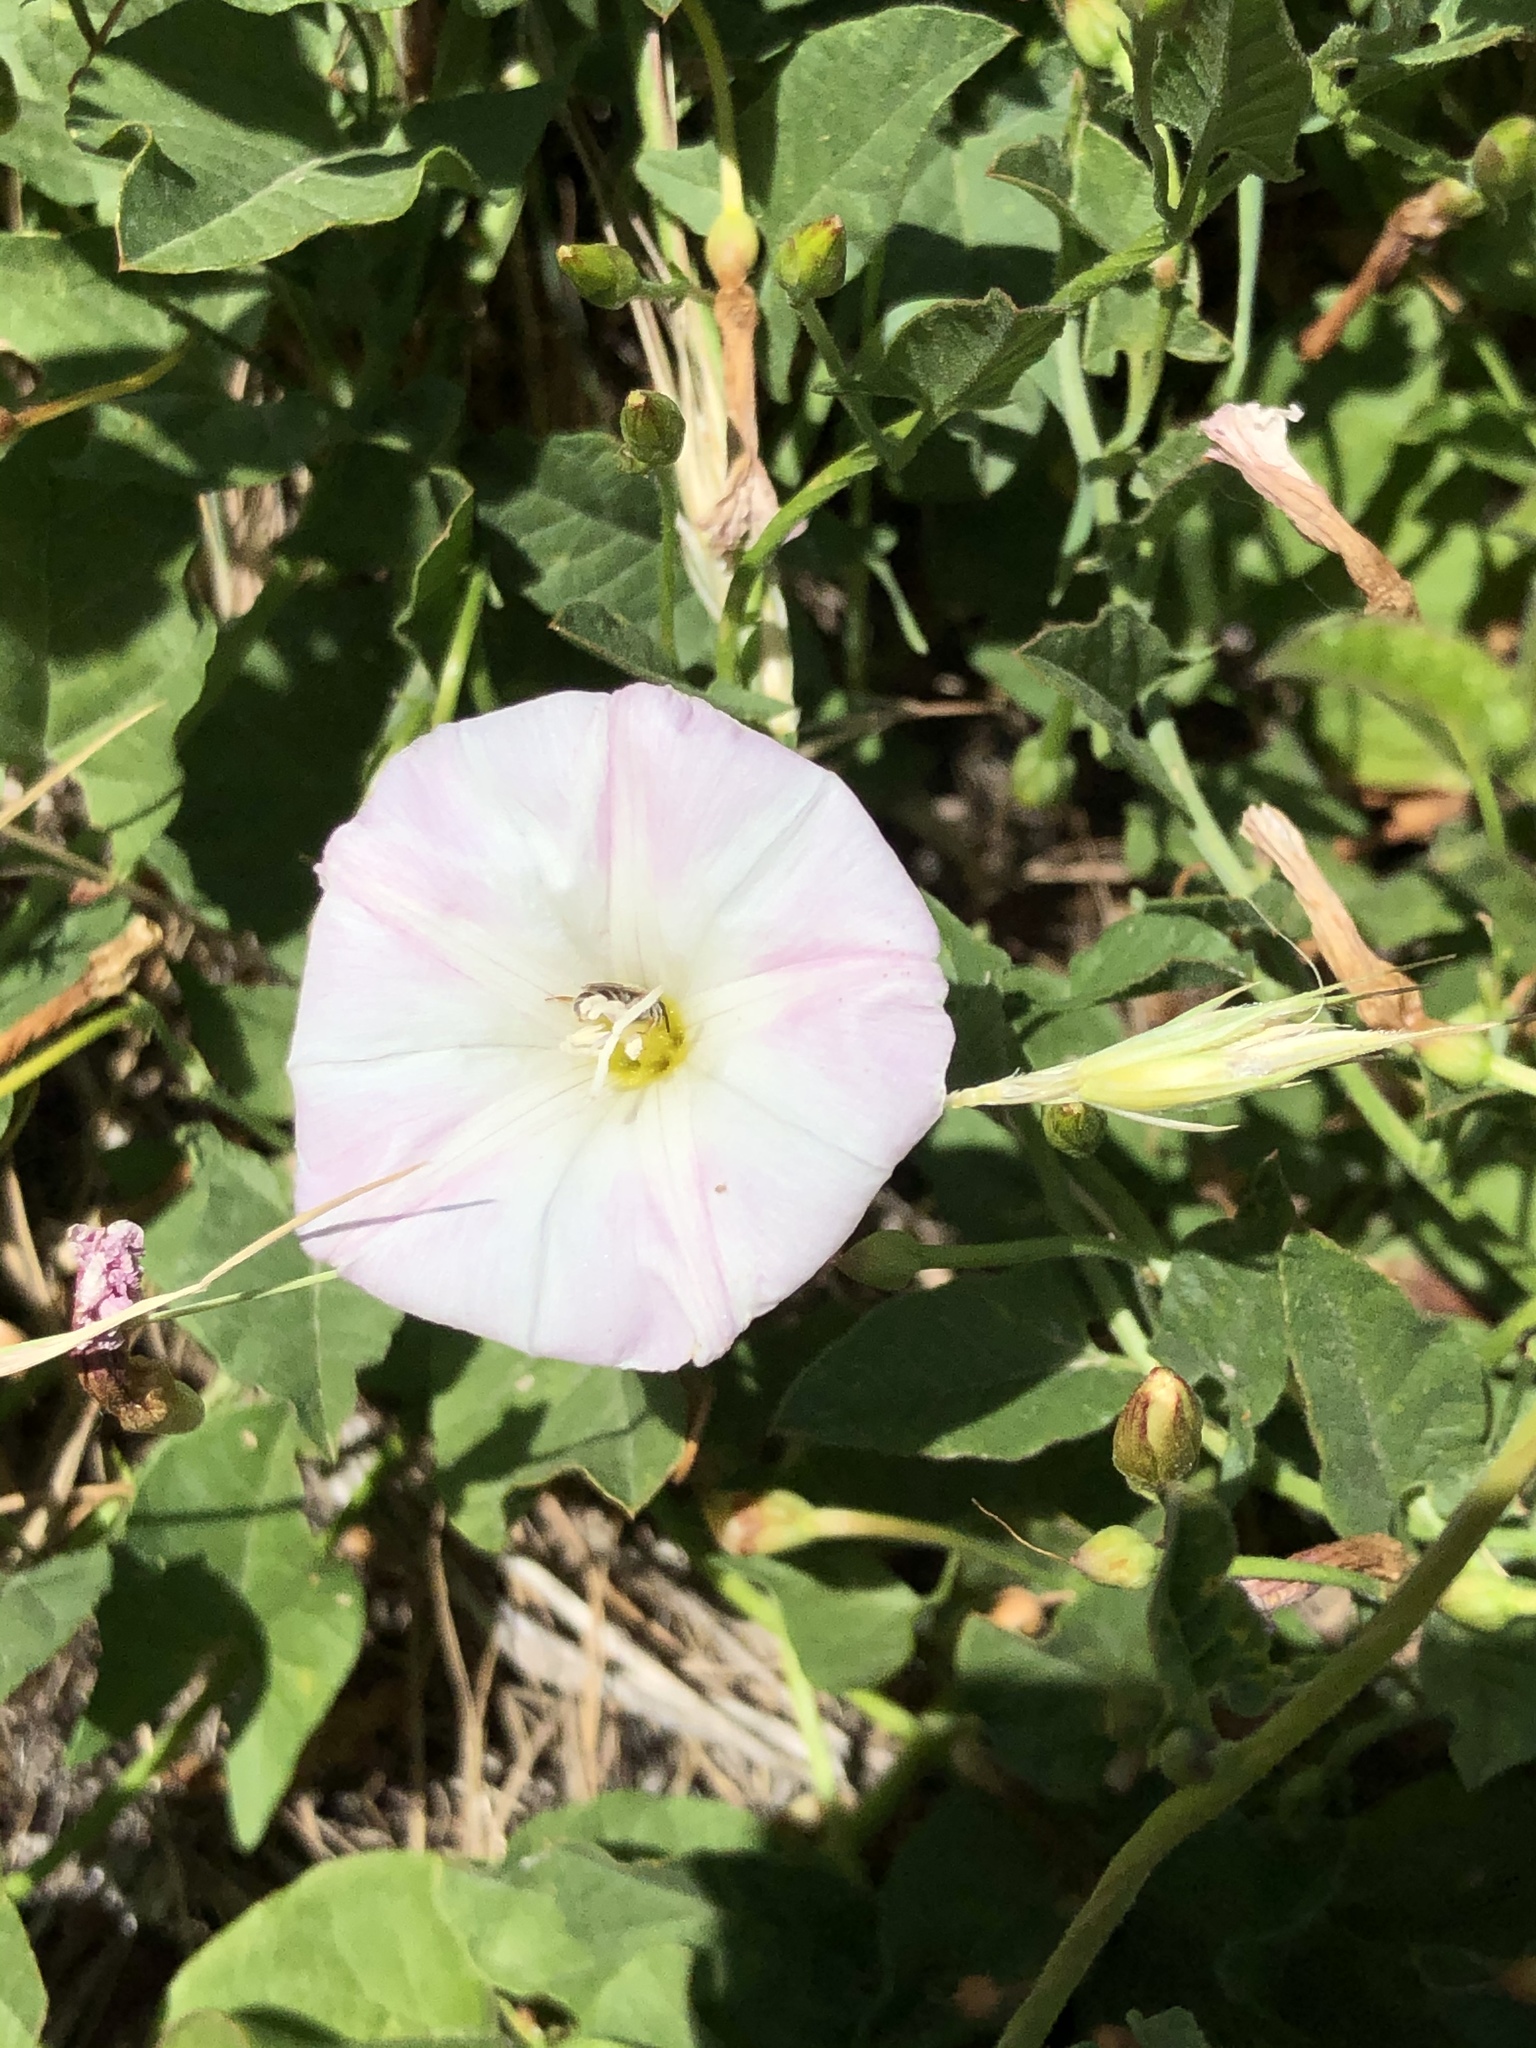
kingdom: Plantae
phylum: Tracheophyta
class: Magnoliopsida
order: Solanales
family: Convolvulaceae
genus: Convolvulus
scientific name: Convolvulus arvensis
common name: Field bindweed
